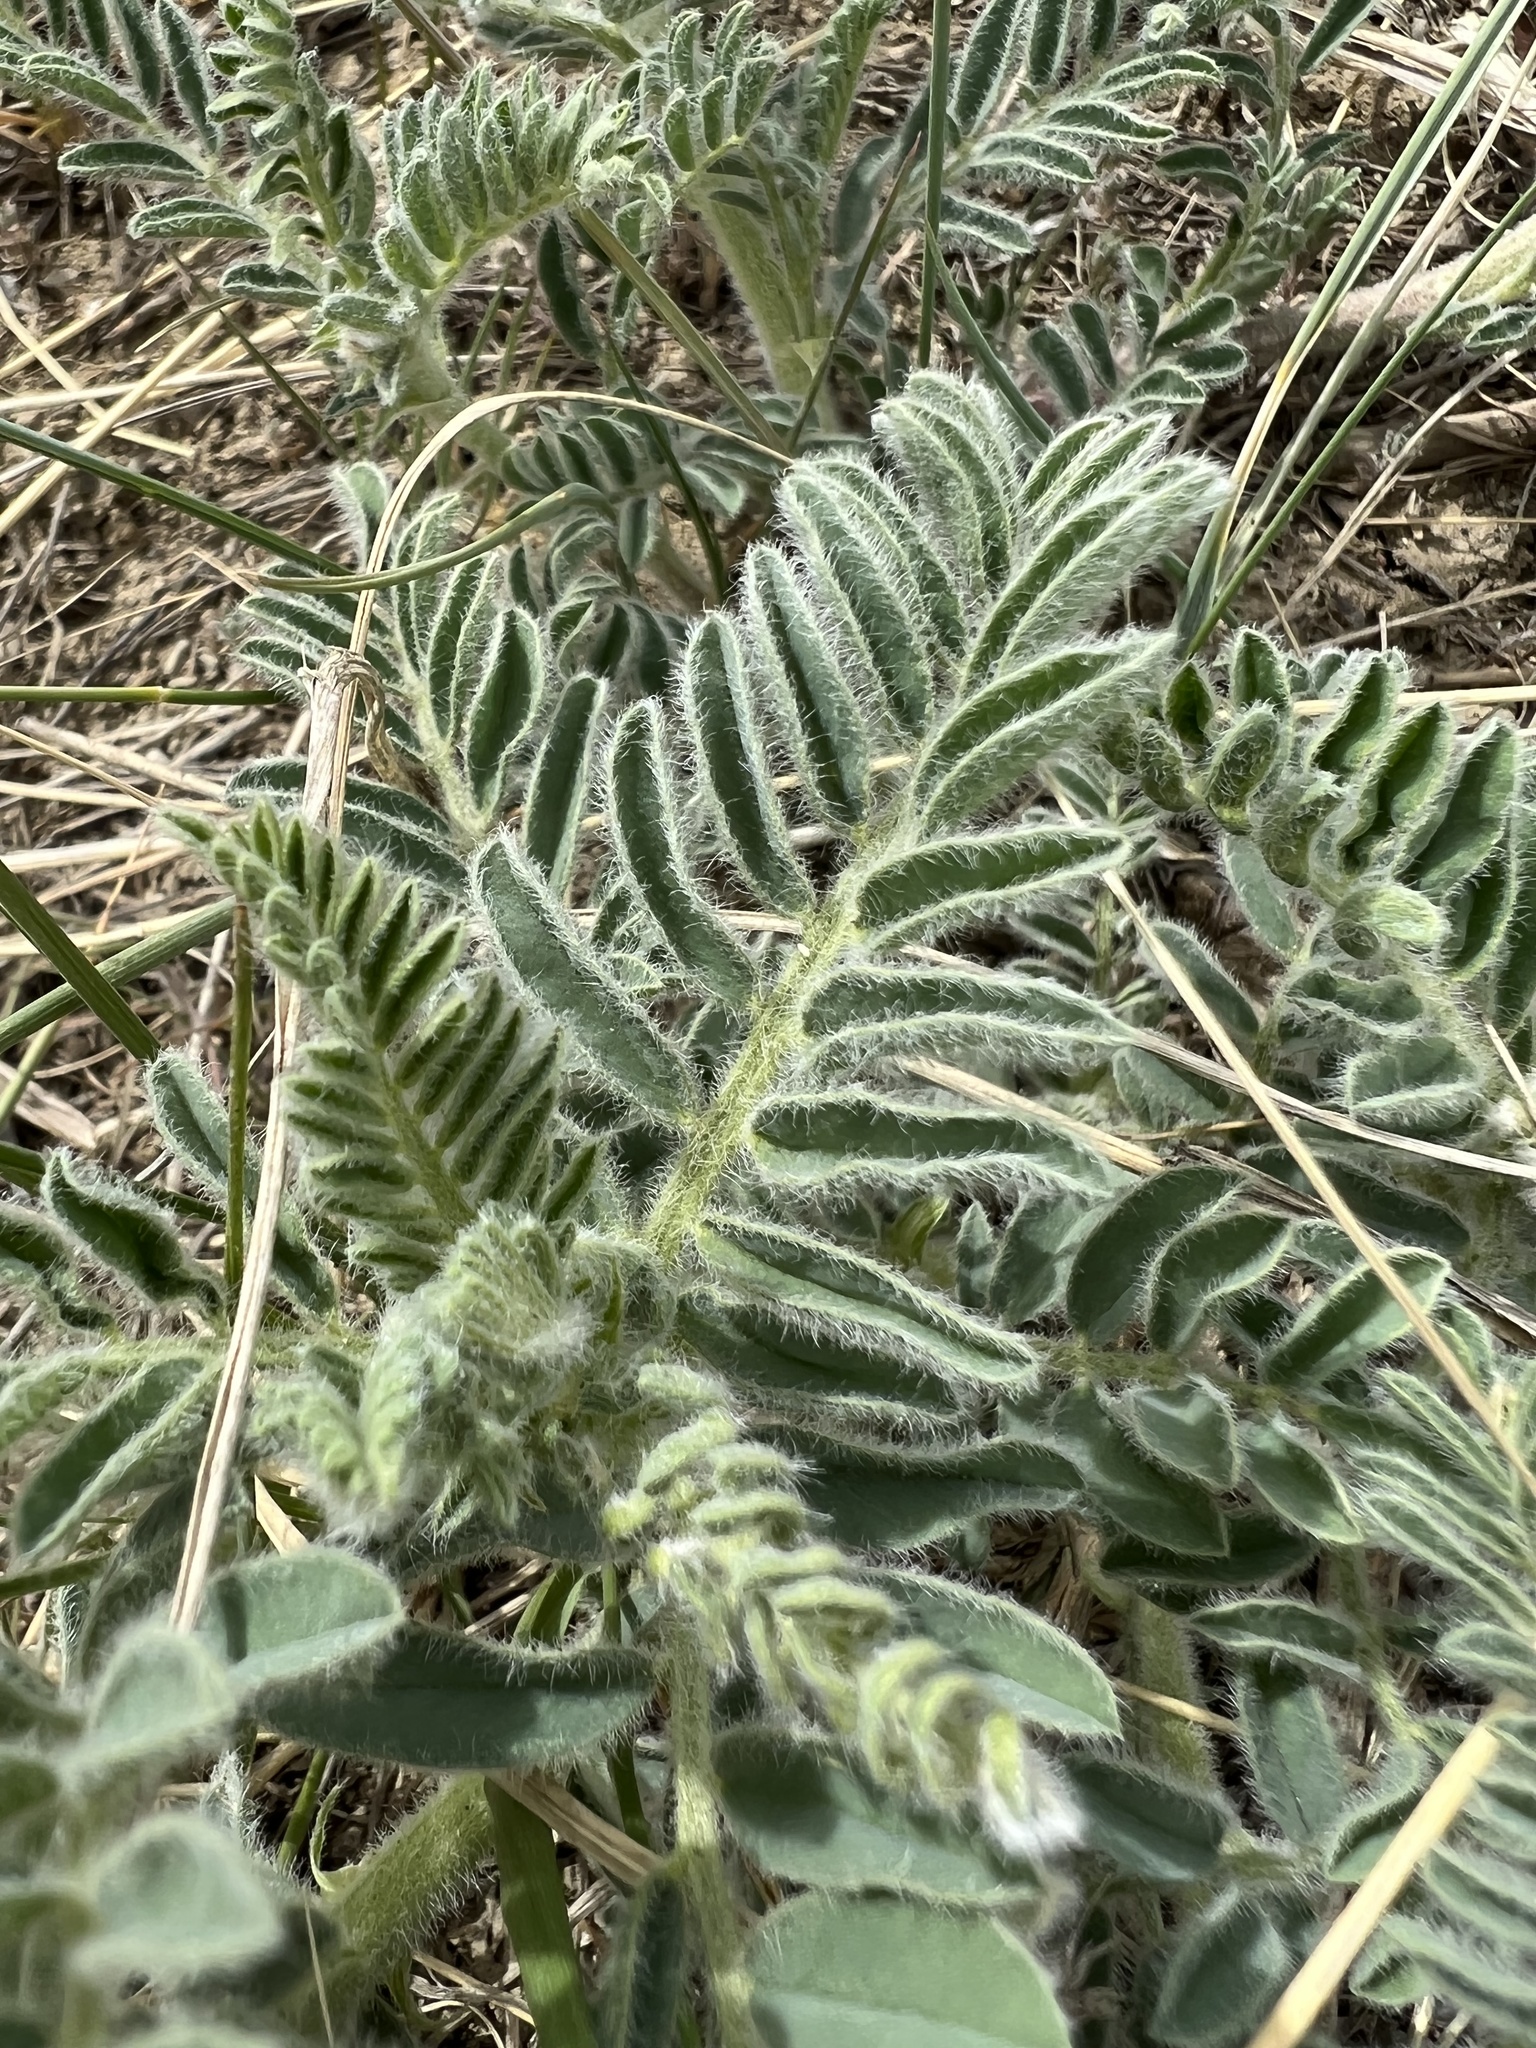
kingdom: Plantae
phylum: Tracheophyta
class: Magnoliopsida
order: Fabales
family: Fabaceae
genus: Astragalus
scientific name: Astragalus drummondii
